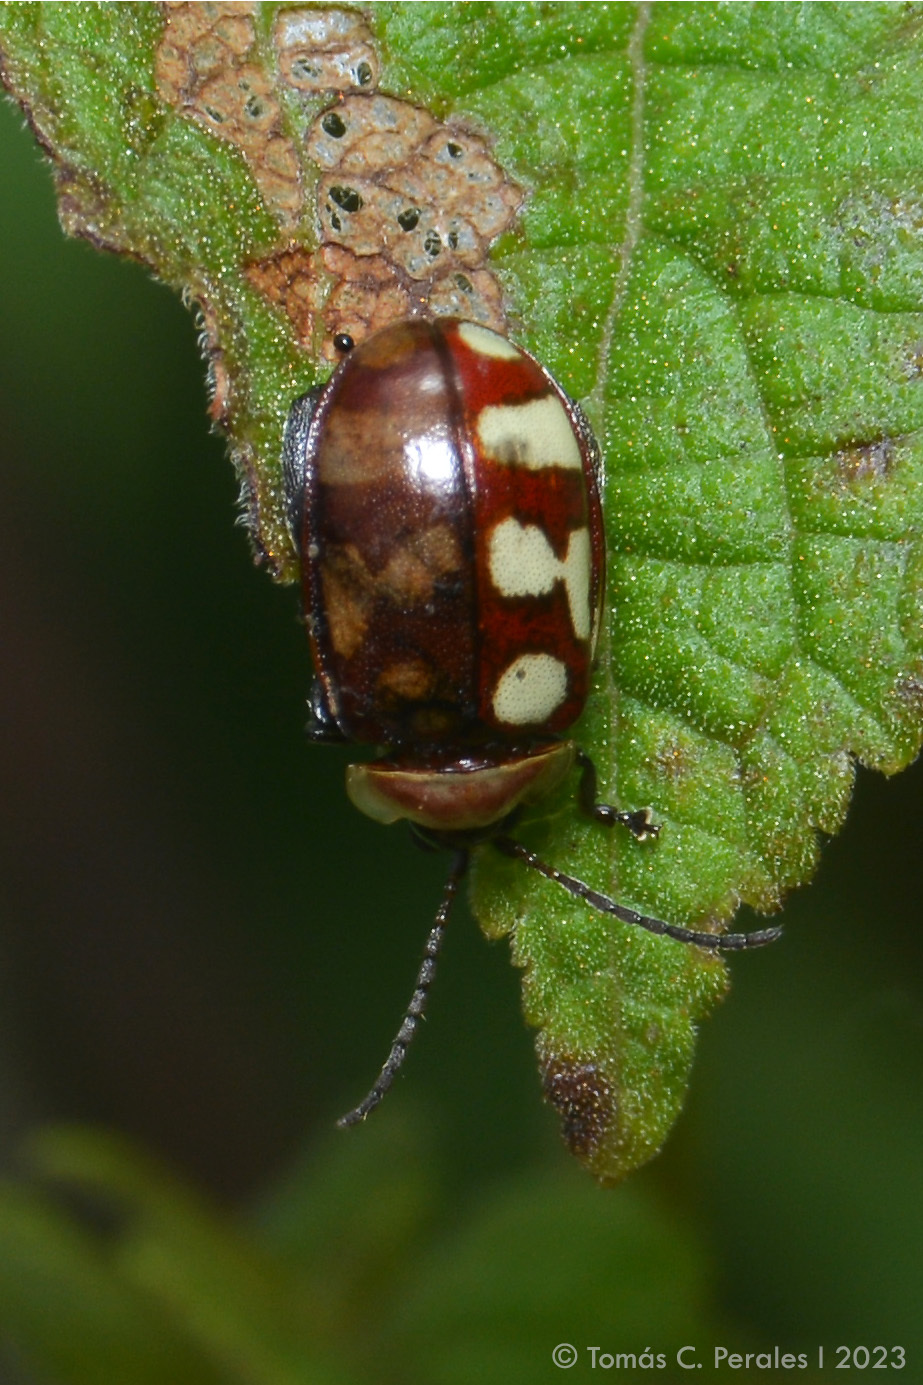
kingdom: Animalia
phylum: Arthropoda
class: Insecta
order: Coleoptera
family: Chrysomelidae
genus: Alagoasa
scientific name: Alagoasa decemguttata
